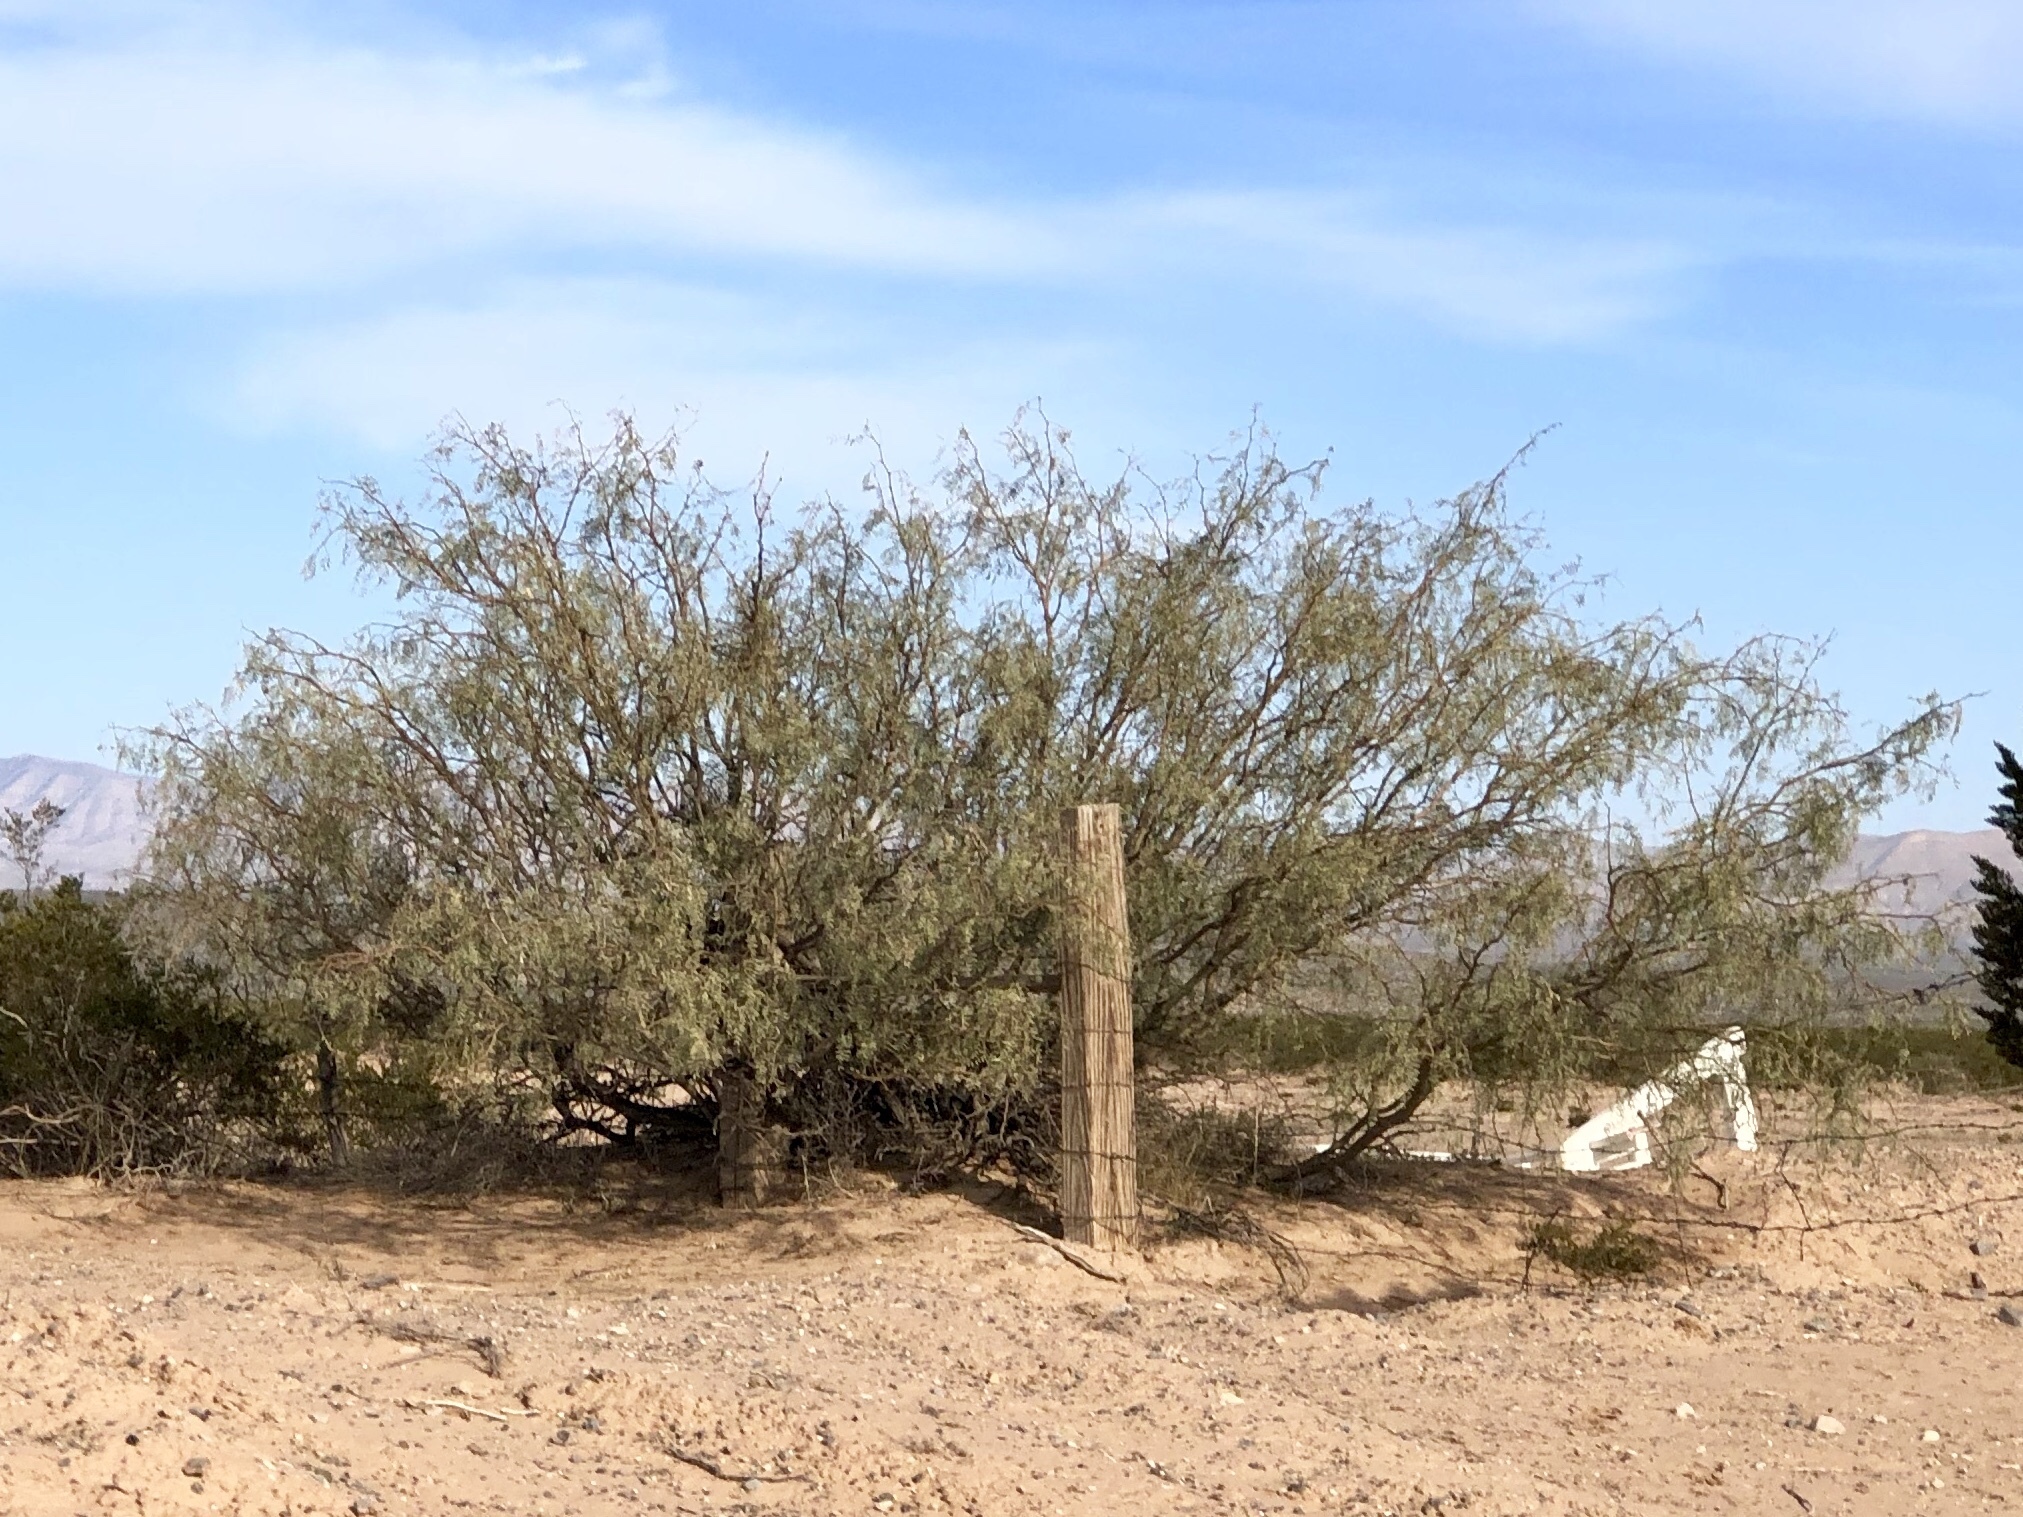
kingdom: Plantae
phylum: Tracheophyta
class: Magnoliopsida
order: Fabales
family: Fabaceae
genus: Prosopis
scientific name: Prosopis glandulosa
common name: Honey mesquite
